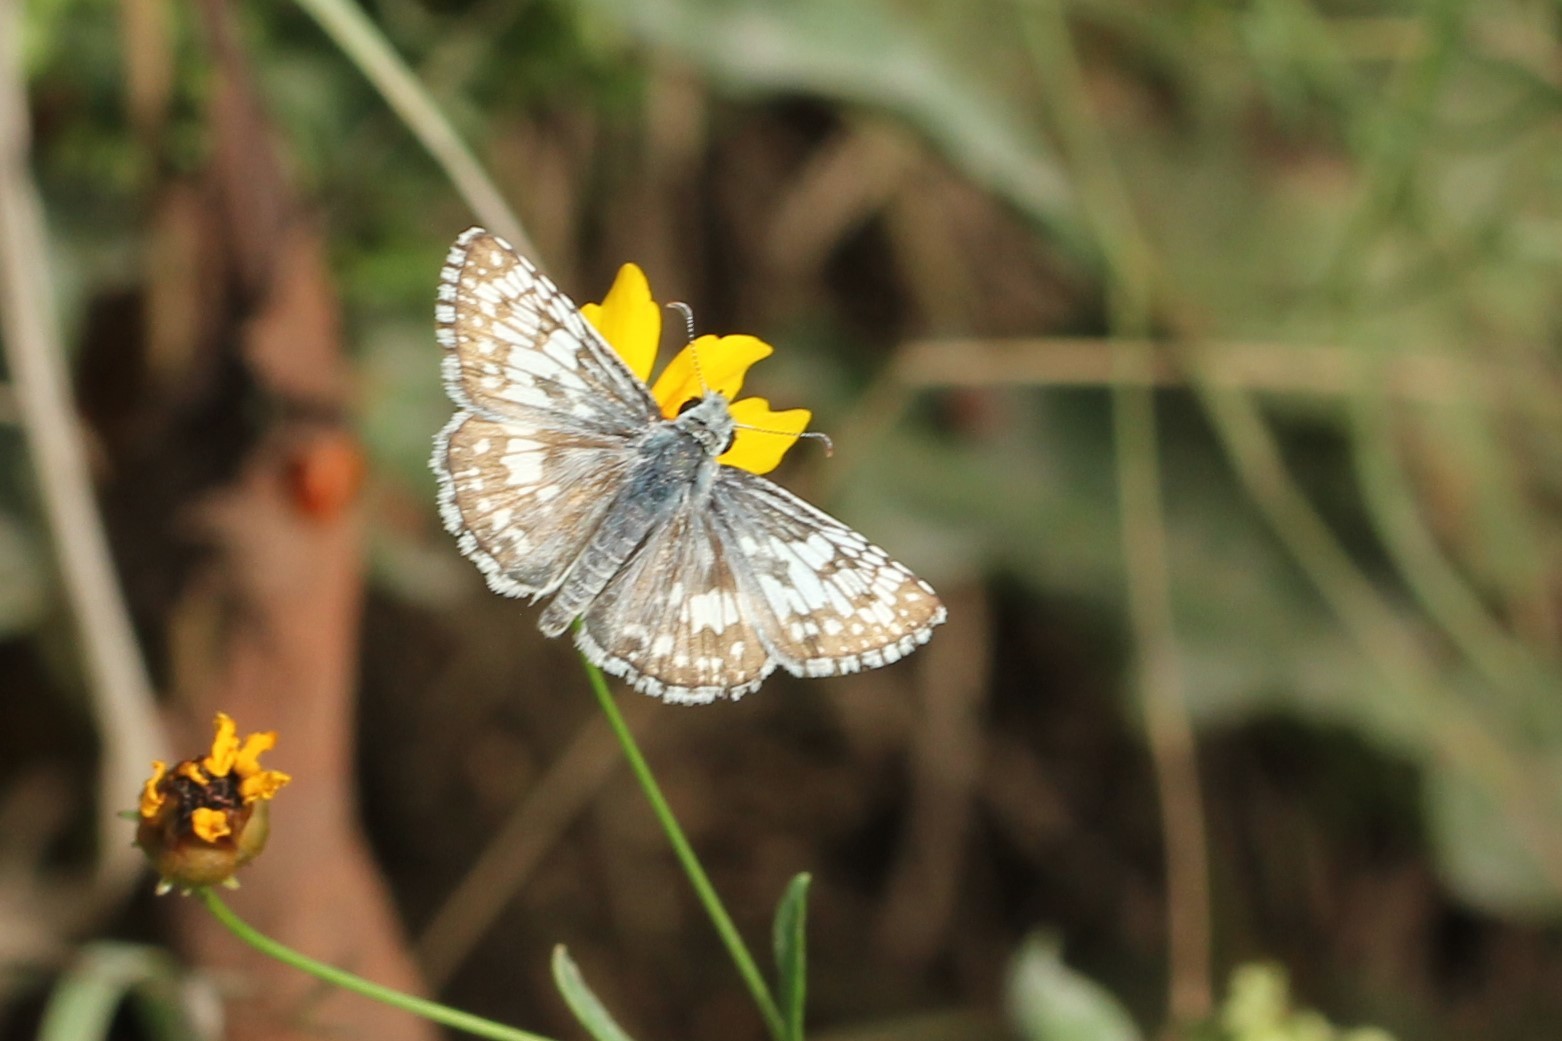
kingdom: Animalia
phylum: Arthropoda
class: Insecta
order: Lepidoptera
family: Hesperiidae
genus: Burnsius
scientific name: Burnsius communis
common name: Common checkered-skipper
